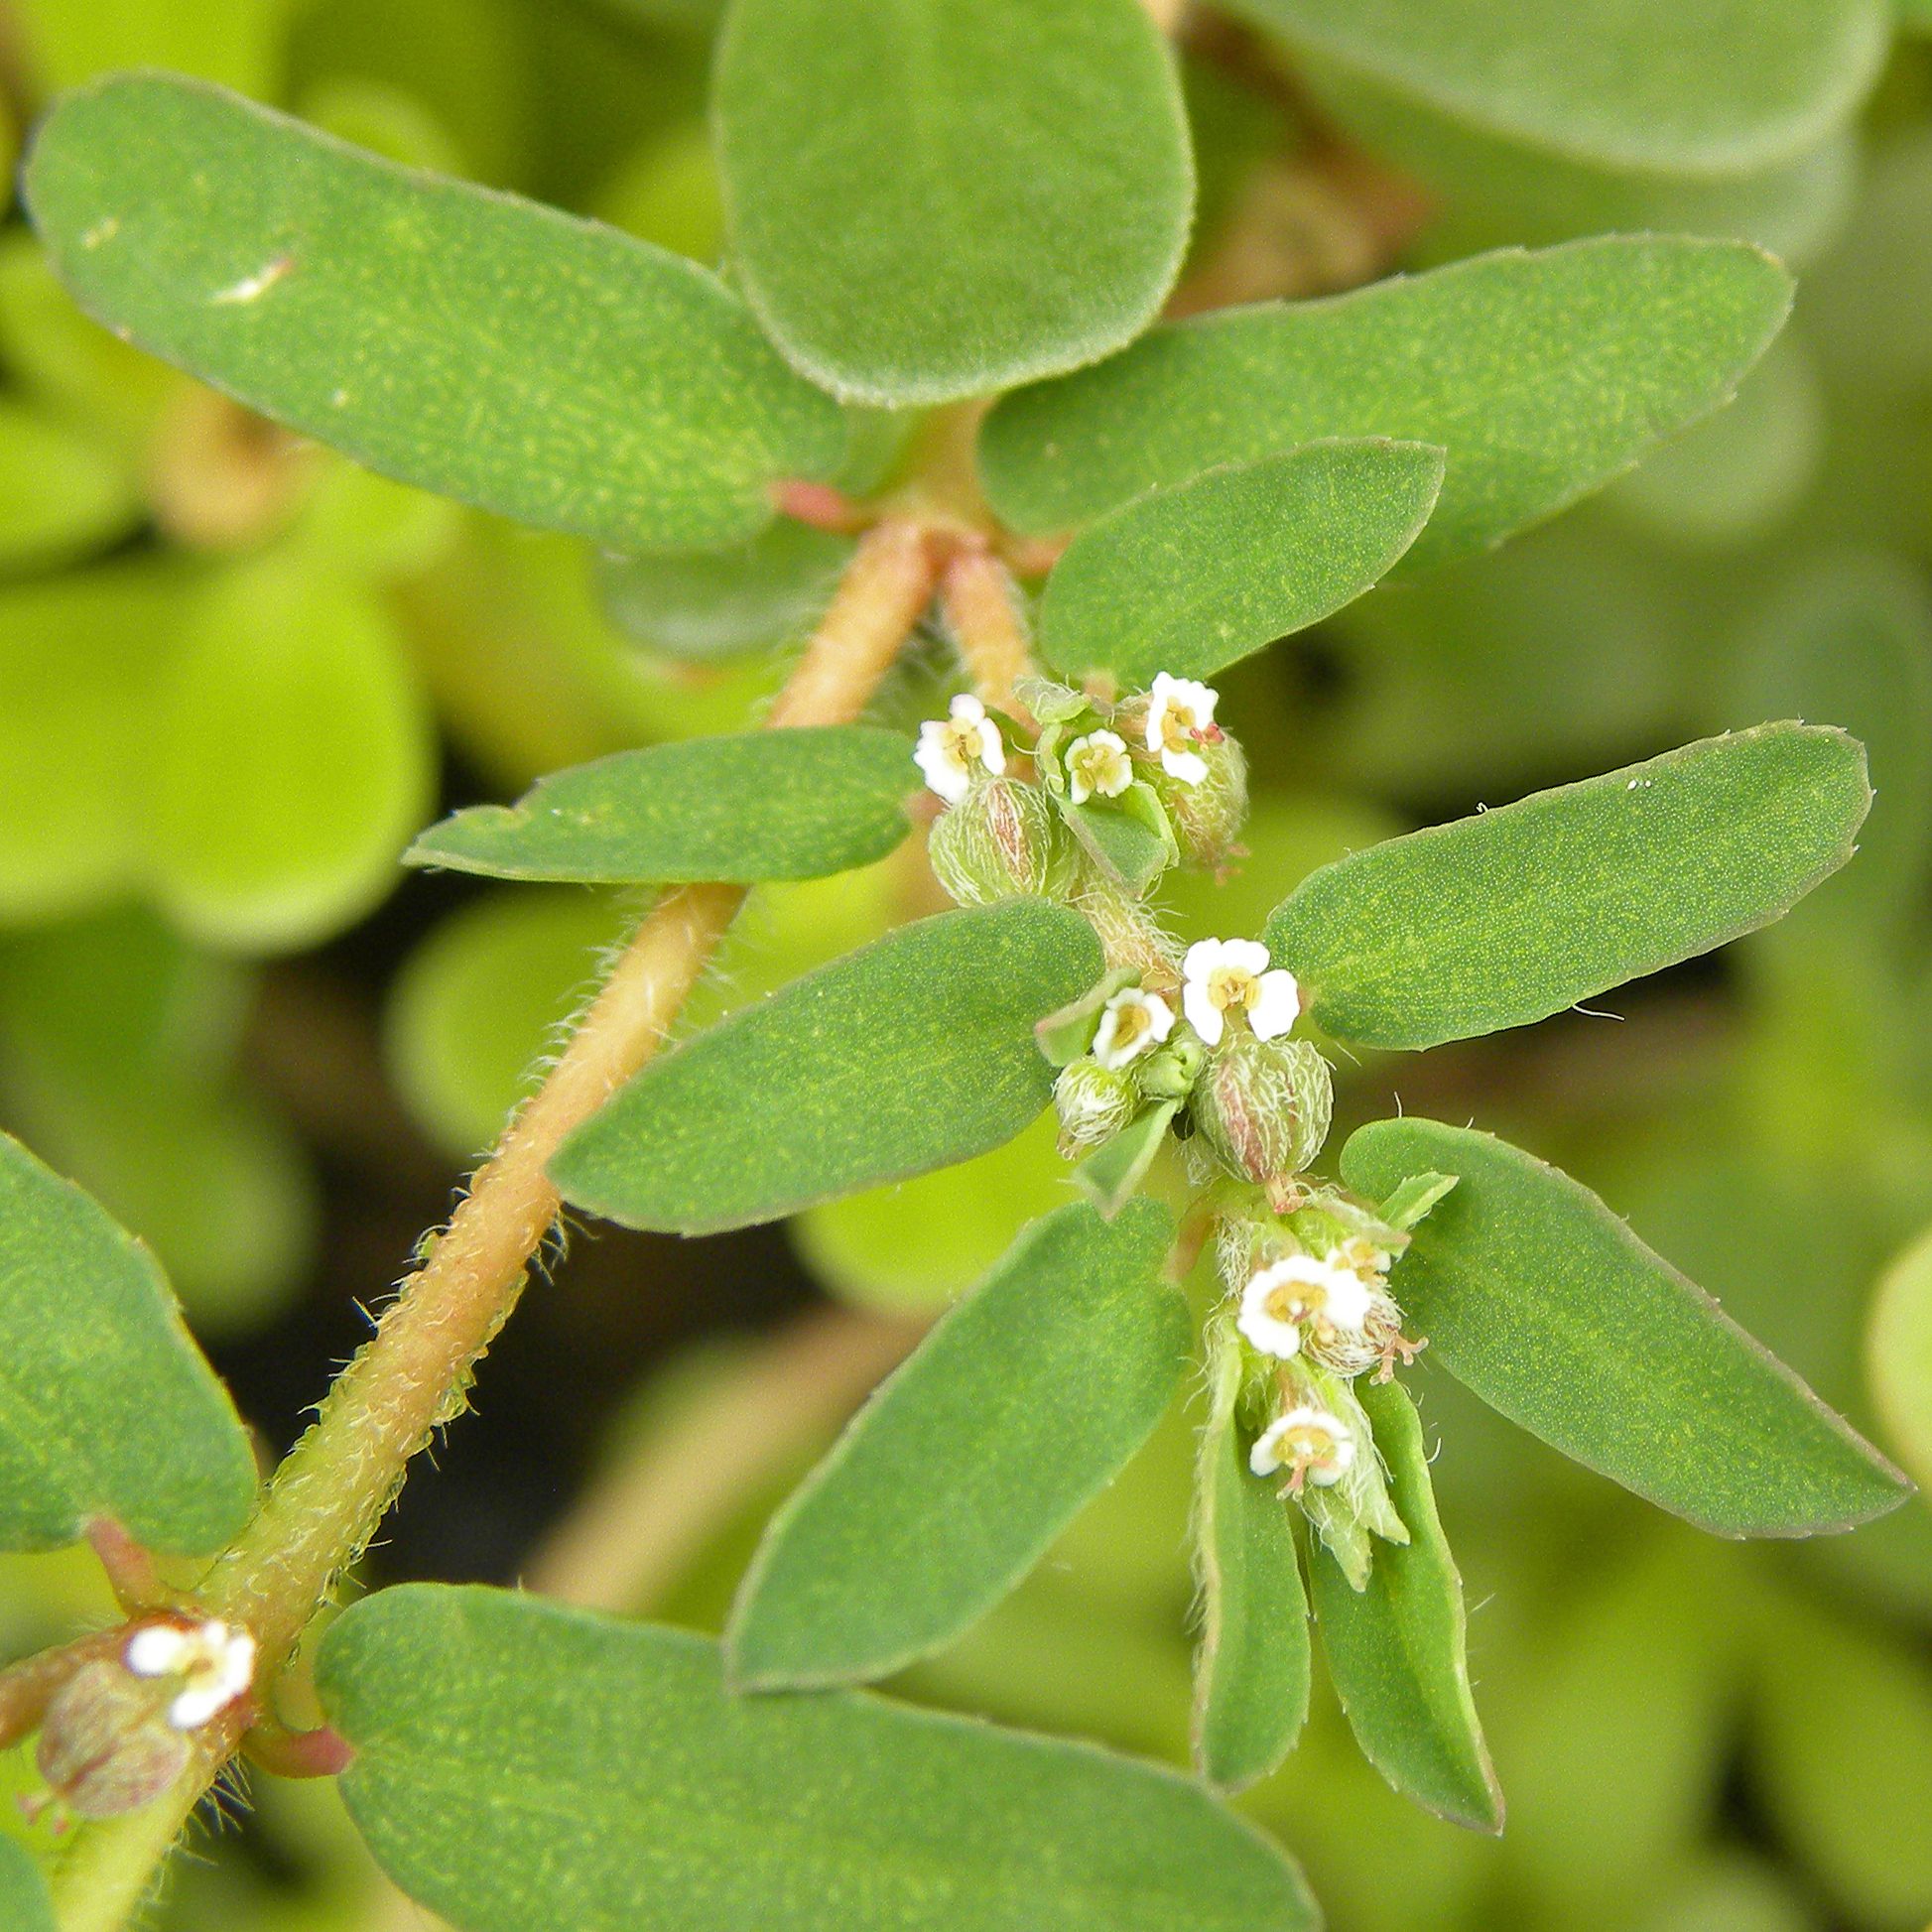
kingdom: Plantae
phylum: Tracheophyta
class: Magnoliopsida
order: Malpighiales
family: Euphorbiaceae
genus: Euphorbia
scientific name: Euphorbia maculata
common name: Spotted spurge
